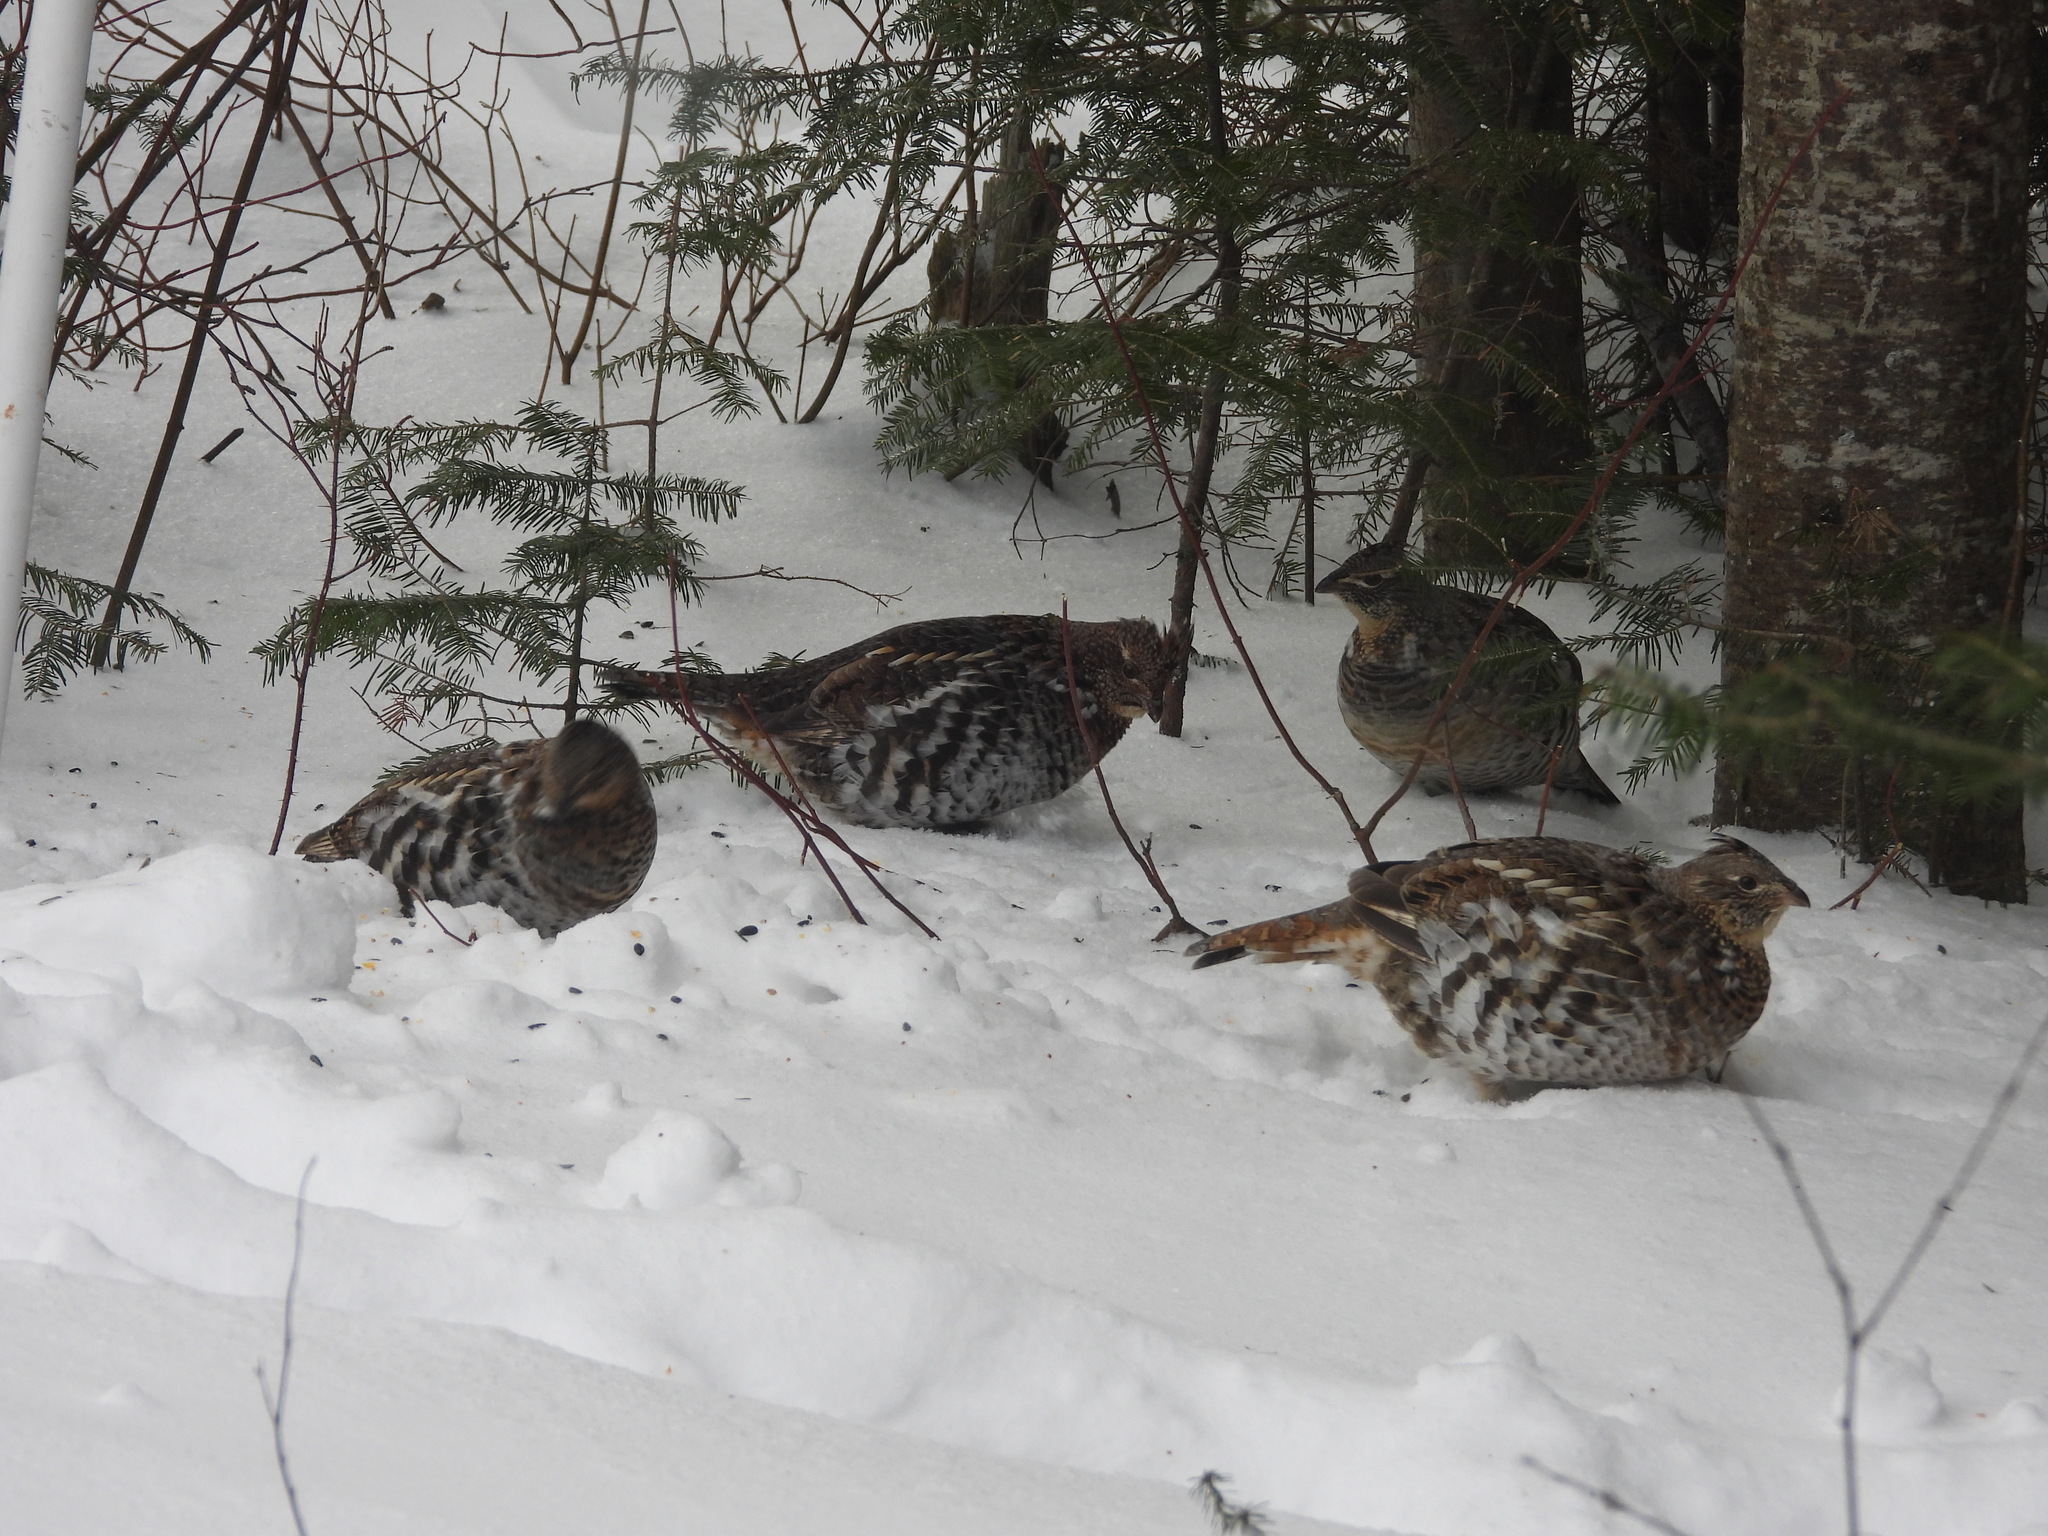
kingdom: Animalia
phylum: Chordata
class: Aves
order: Galliformes
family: Phasianidae
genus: Bonasa
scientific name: Bonasa umbellus
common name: Ruffed grouse
